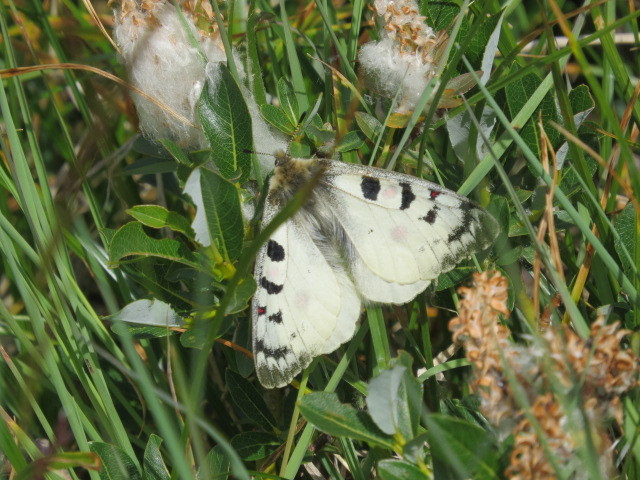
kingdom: Animalia
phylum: Arthropoda
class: Insecta
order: Lepidoptera
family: Papilionidae
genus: Parnassius
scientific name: Parnassius phoebus
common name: Small apollo
